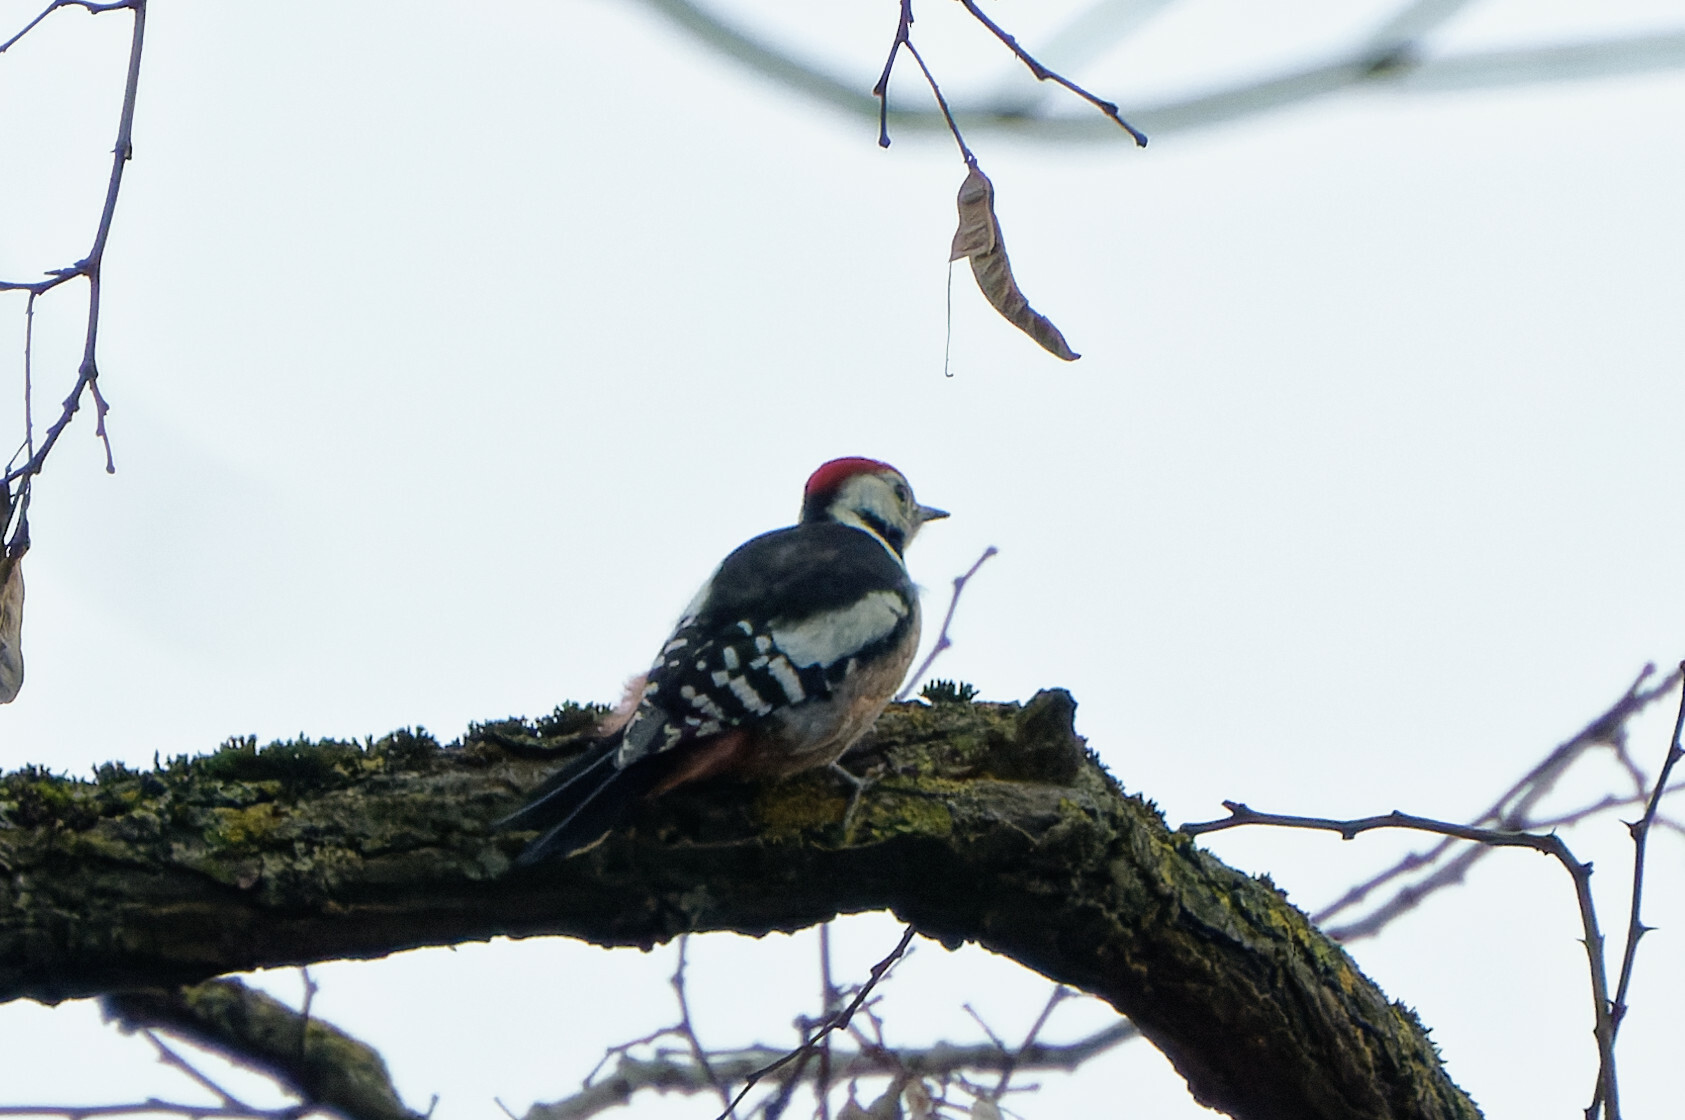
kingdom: Animalia
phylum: Chordata
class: Aves
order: Piciformes
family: Picidae
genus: Dendrocoptes
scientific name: Dendrocoptes medius
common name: Middle spotted woodpecker
